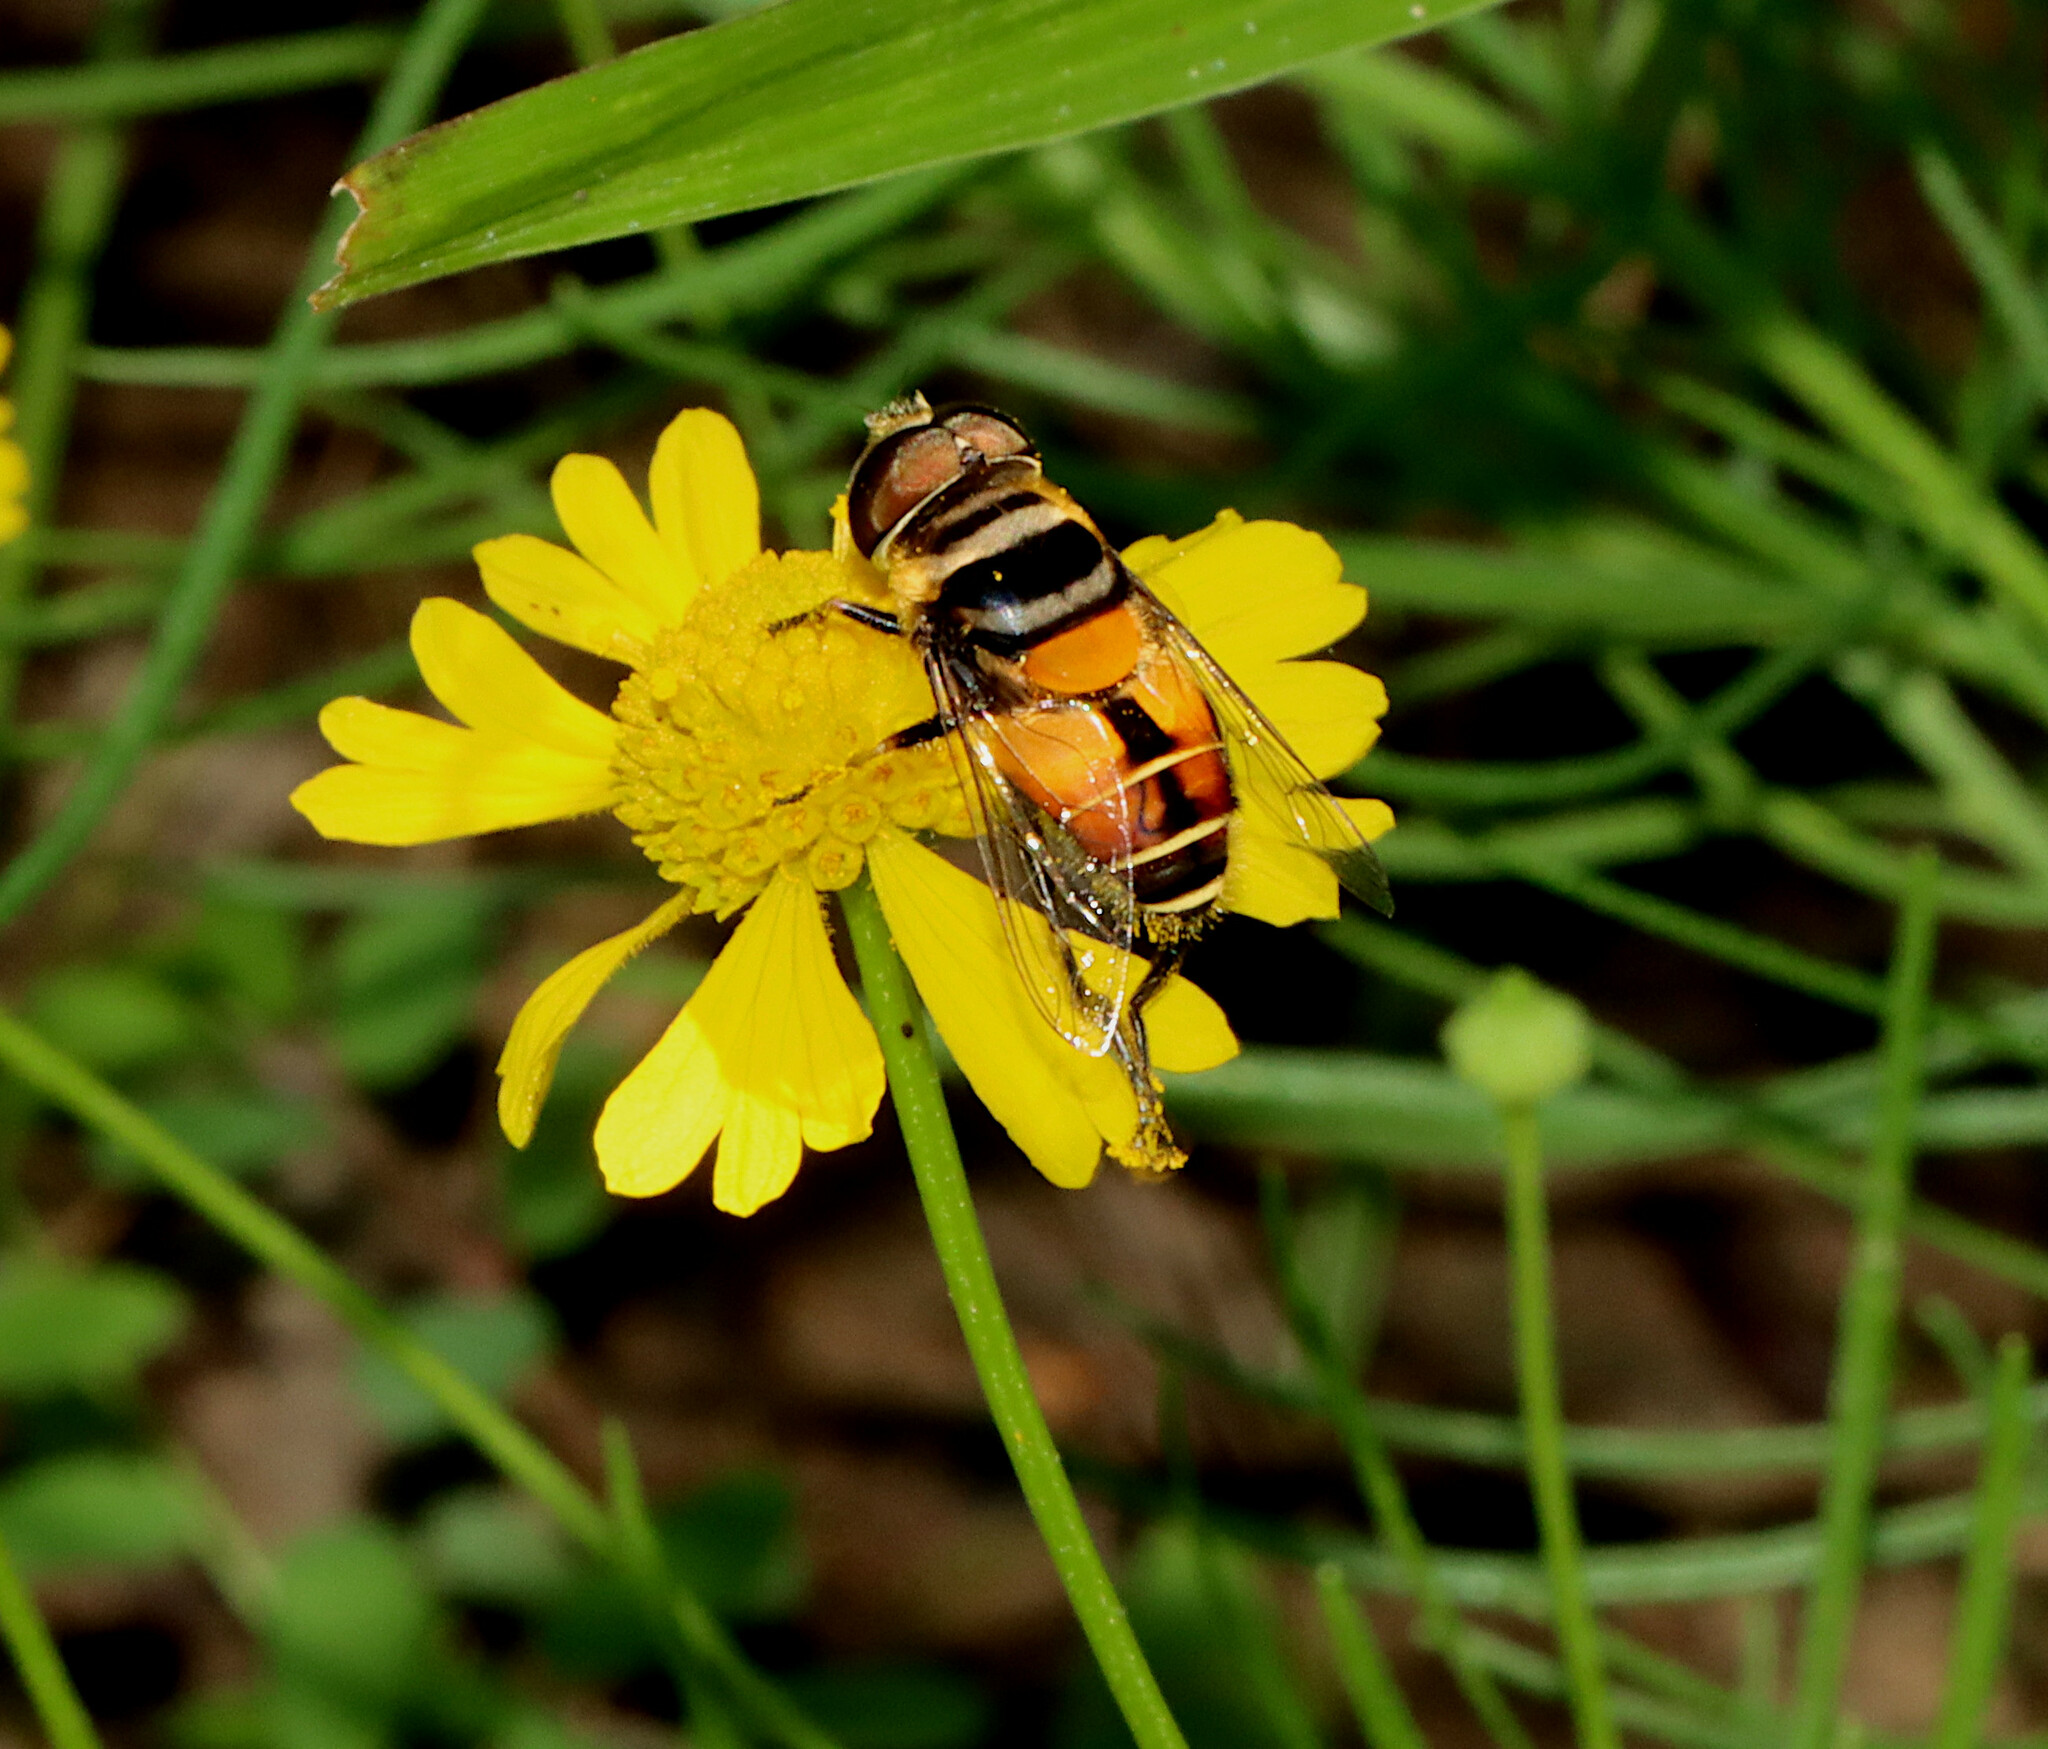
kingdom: Animalia
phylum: Arthropoda
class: Insecta
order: Diptera
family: Syrphidae
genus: Palpada
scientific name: Palpada agrorum
